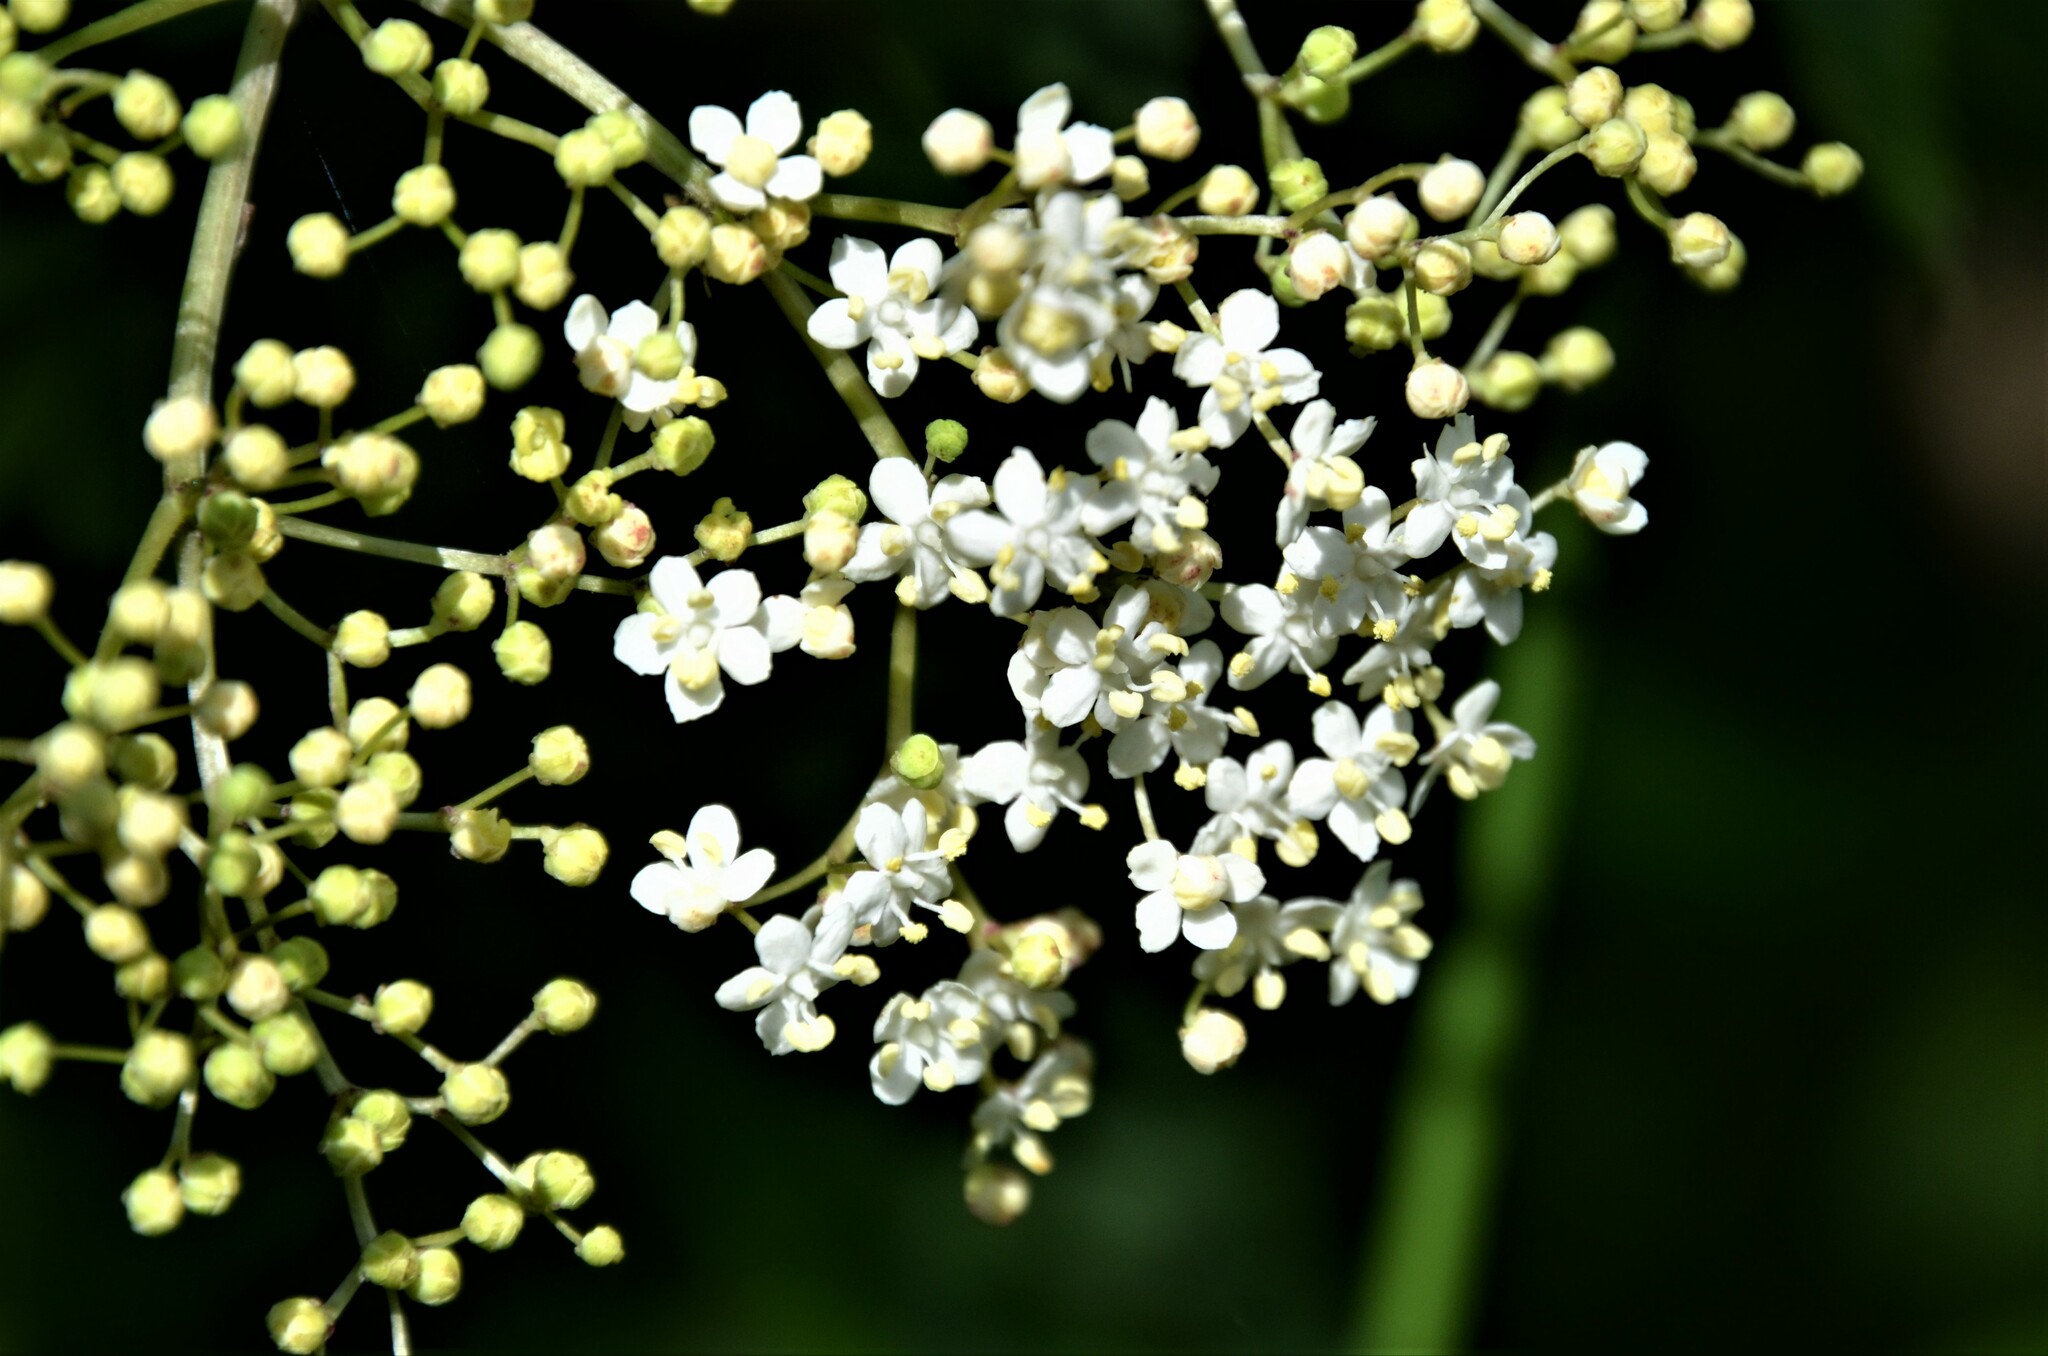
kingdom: Plantae
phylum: Tracheophyta
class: Magnoliopsida
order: Dipsacales
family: Viburnaceae
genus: Sambucus
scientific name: Sambucus nigra
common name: Elder
